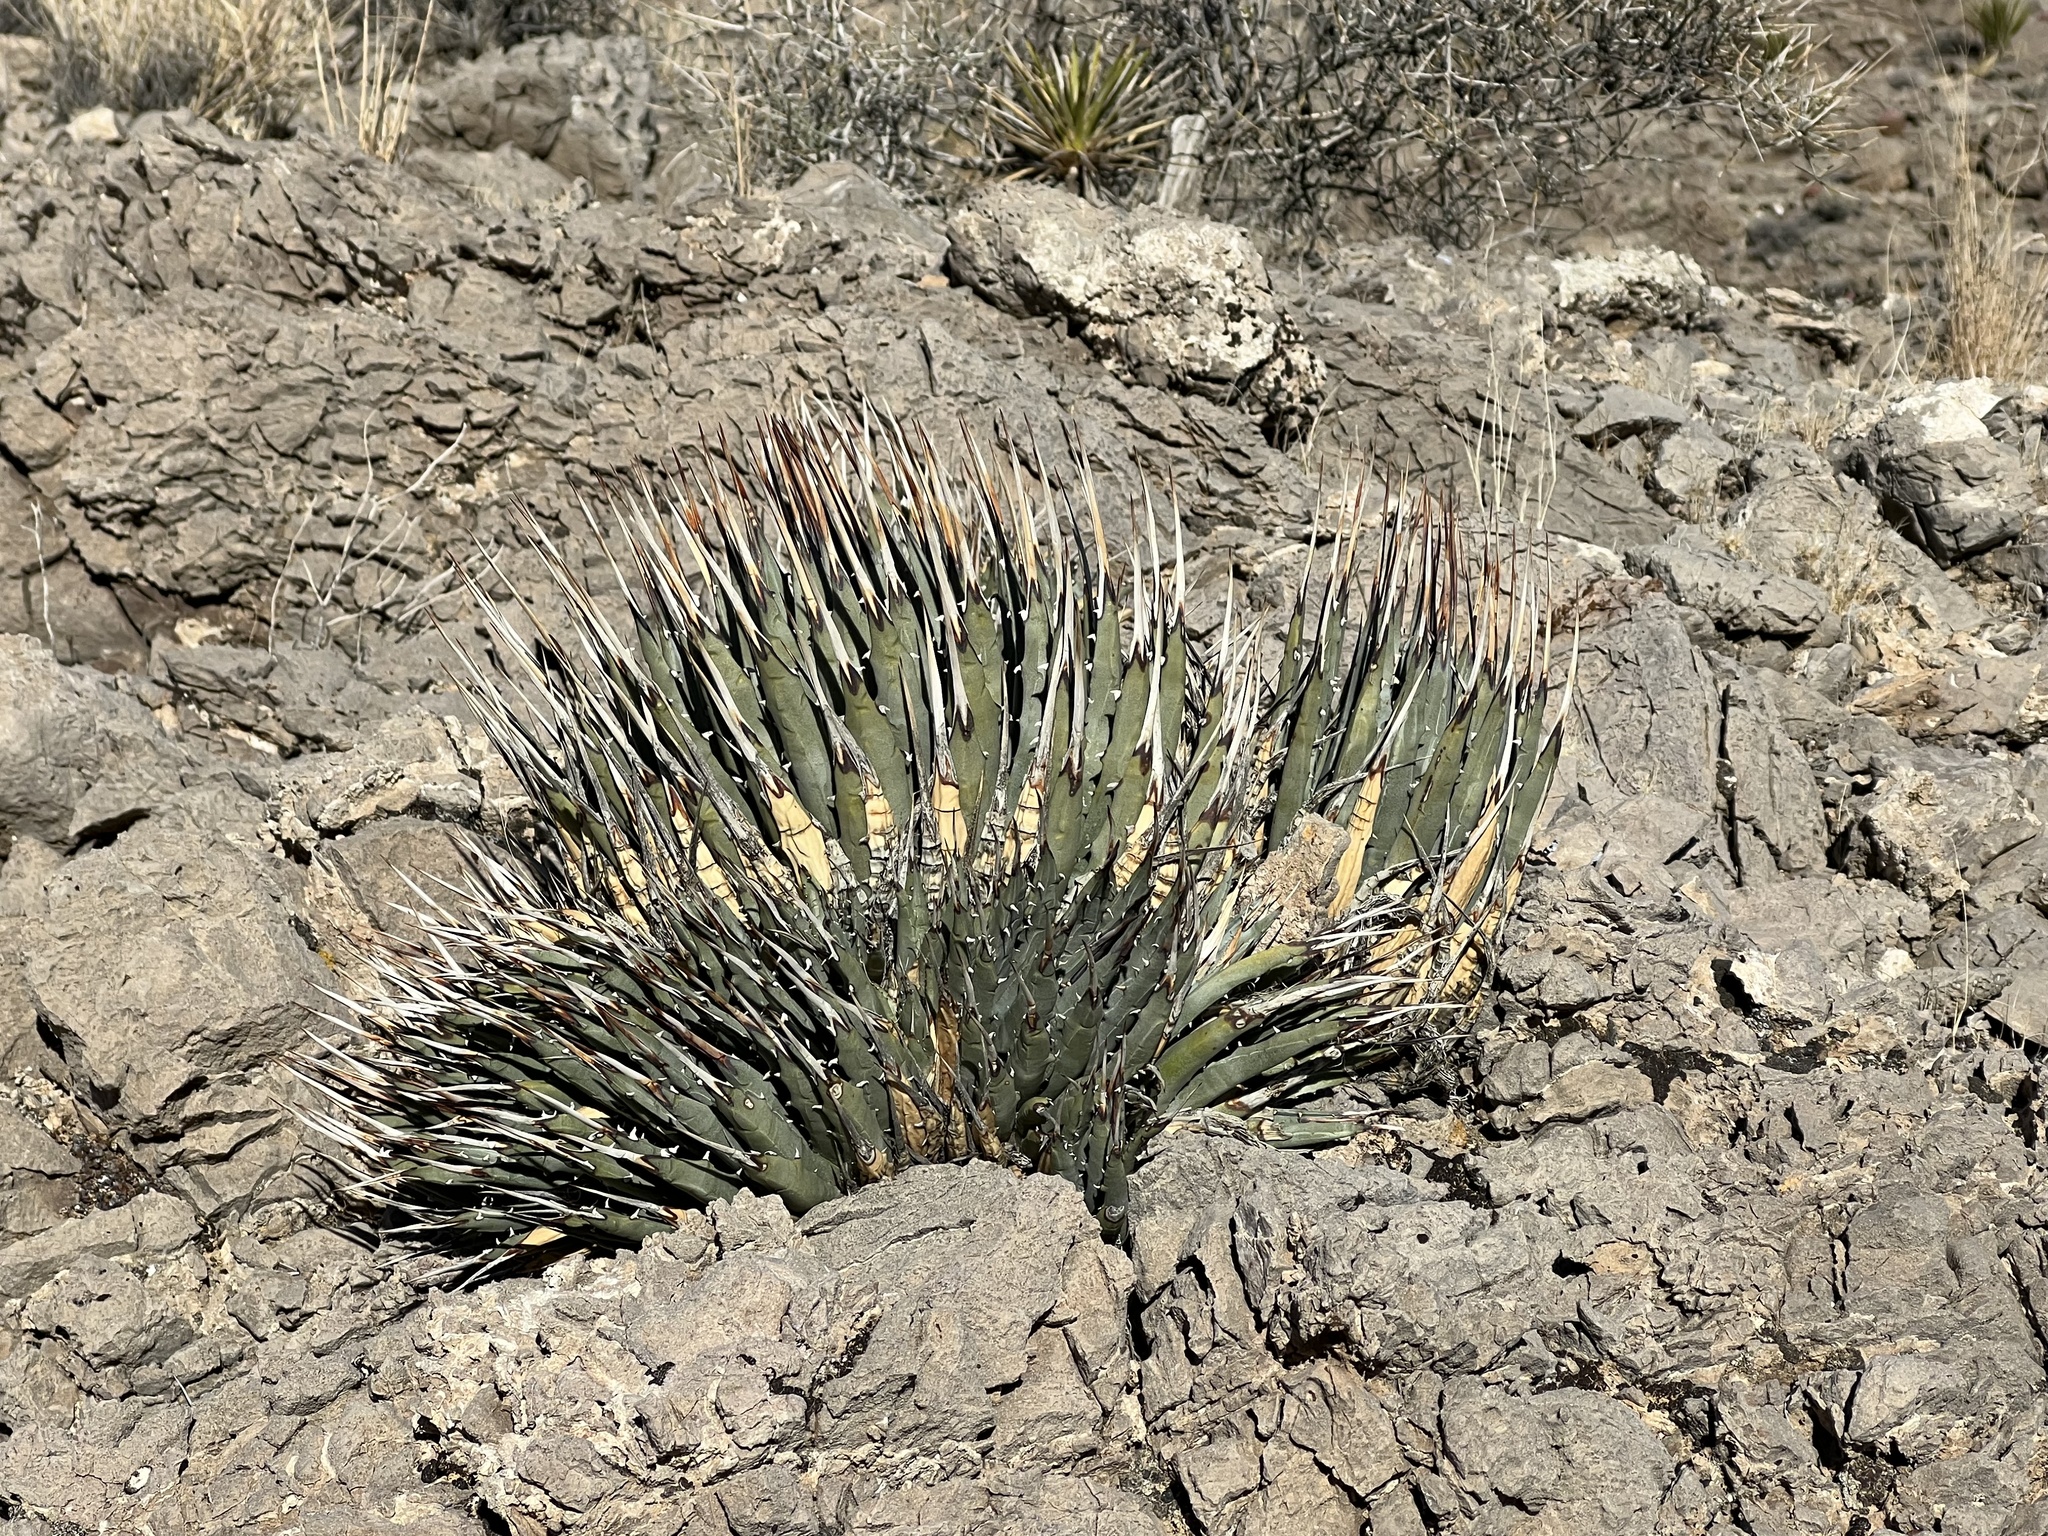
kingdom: Plantae
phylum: Tracheophyta
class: Liliopsida
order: Asparagales
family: Asparagaceae
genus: Agave
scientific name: Agave utahensis
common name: Utah agave
